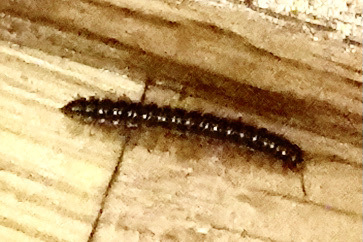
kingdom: Animalia
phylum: Arthropoda
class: Diplopoda
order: Polydesmida
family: Paradoxosomatidae
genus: Oxidus
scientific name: Oxidus gracilis
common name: Greenhouse millipede
